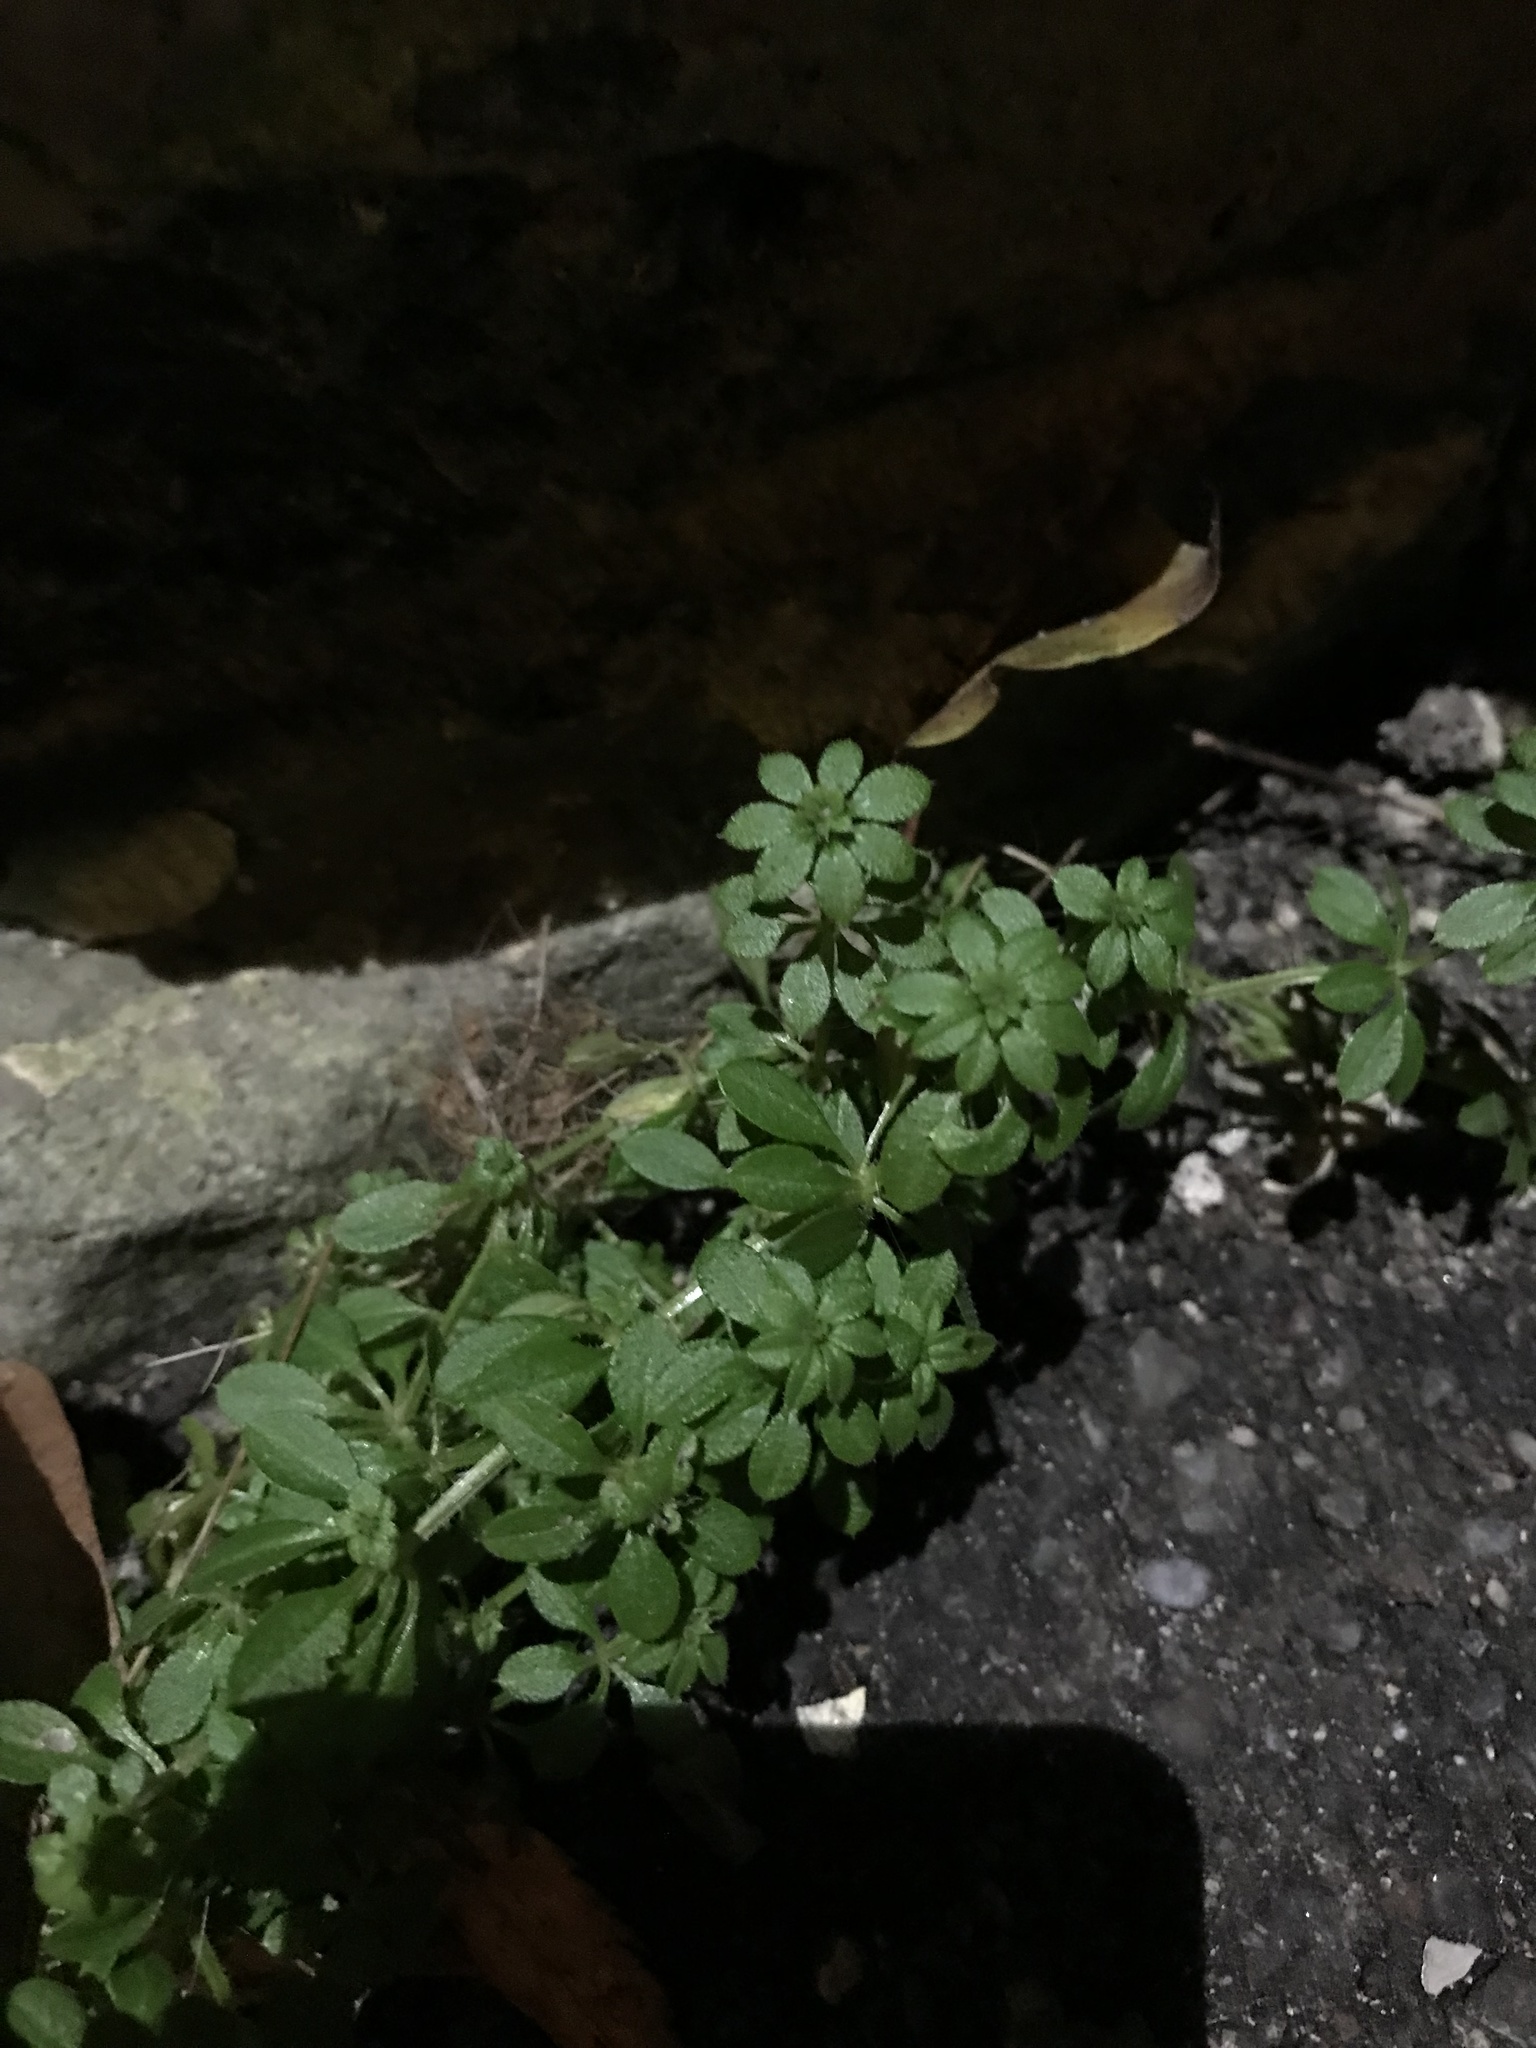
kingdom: Plantae
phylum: Tracheophyta
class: Magnoliopsida
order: Gentianales
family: Rubiaceae
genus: Galium
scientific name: Galium aparine
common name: Cleavers
